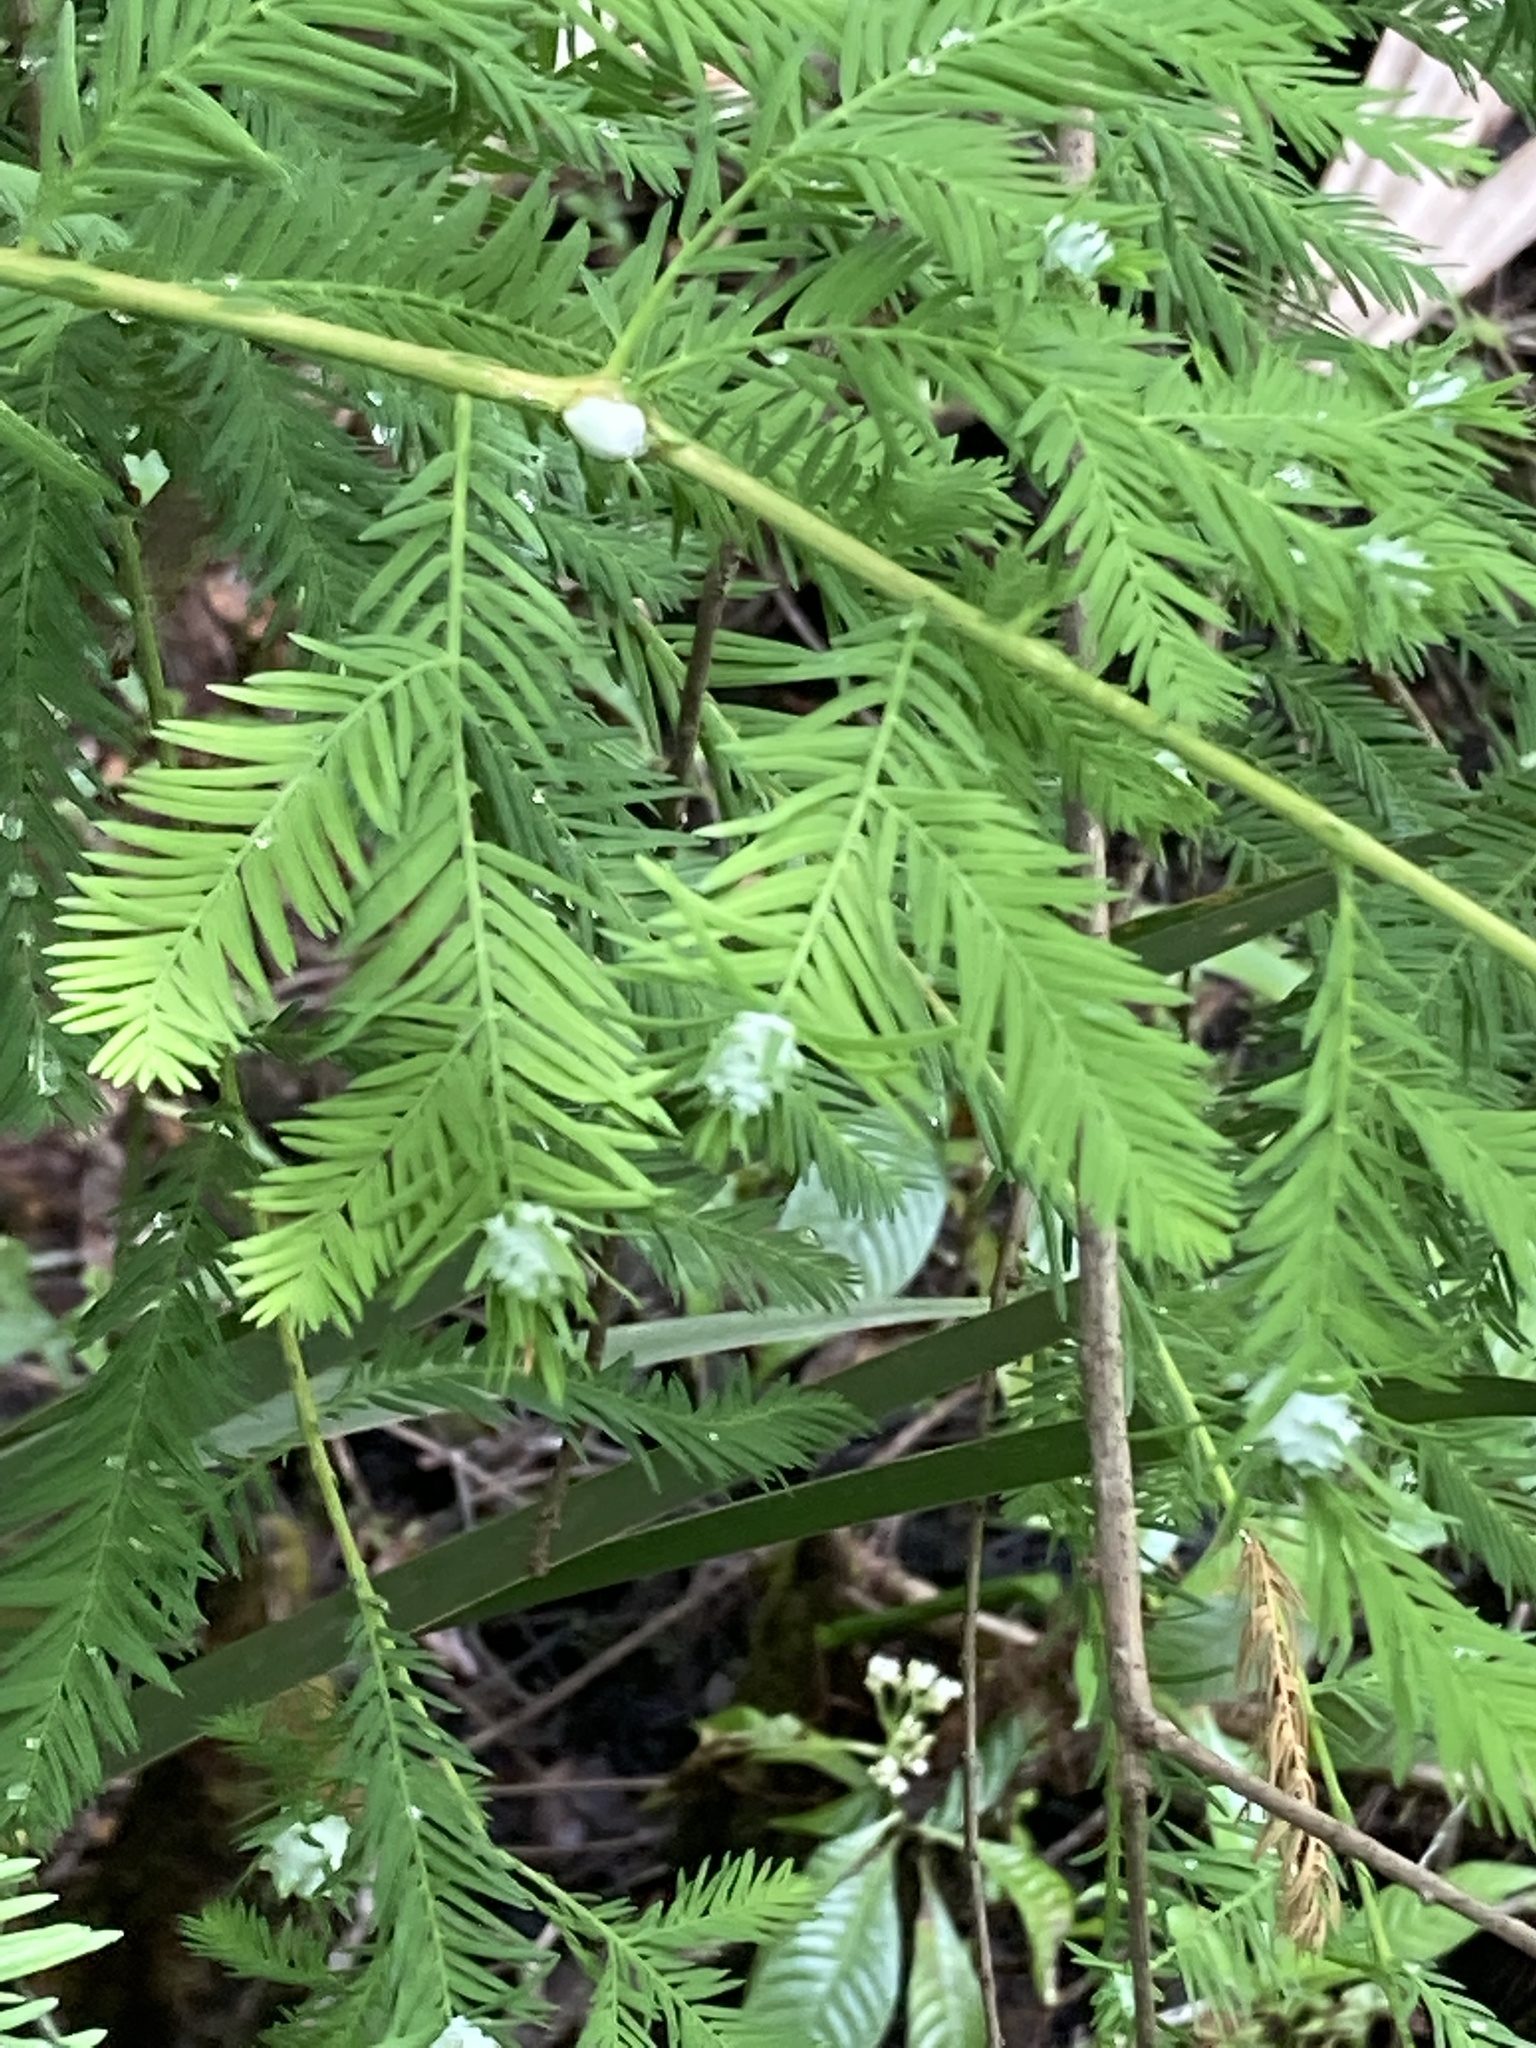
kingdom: Animalia
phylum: Arthropoda
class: Insecta
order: Diptera
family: Cecidomyiidae
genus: Taxodiomyia
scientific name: Taxodiomyia cupressiananassa
